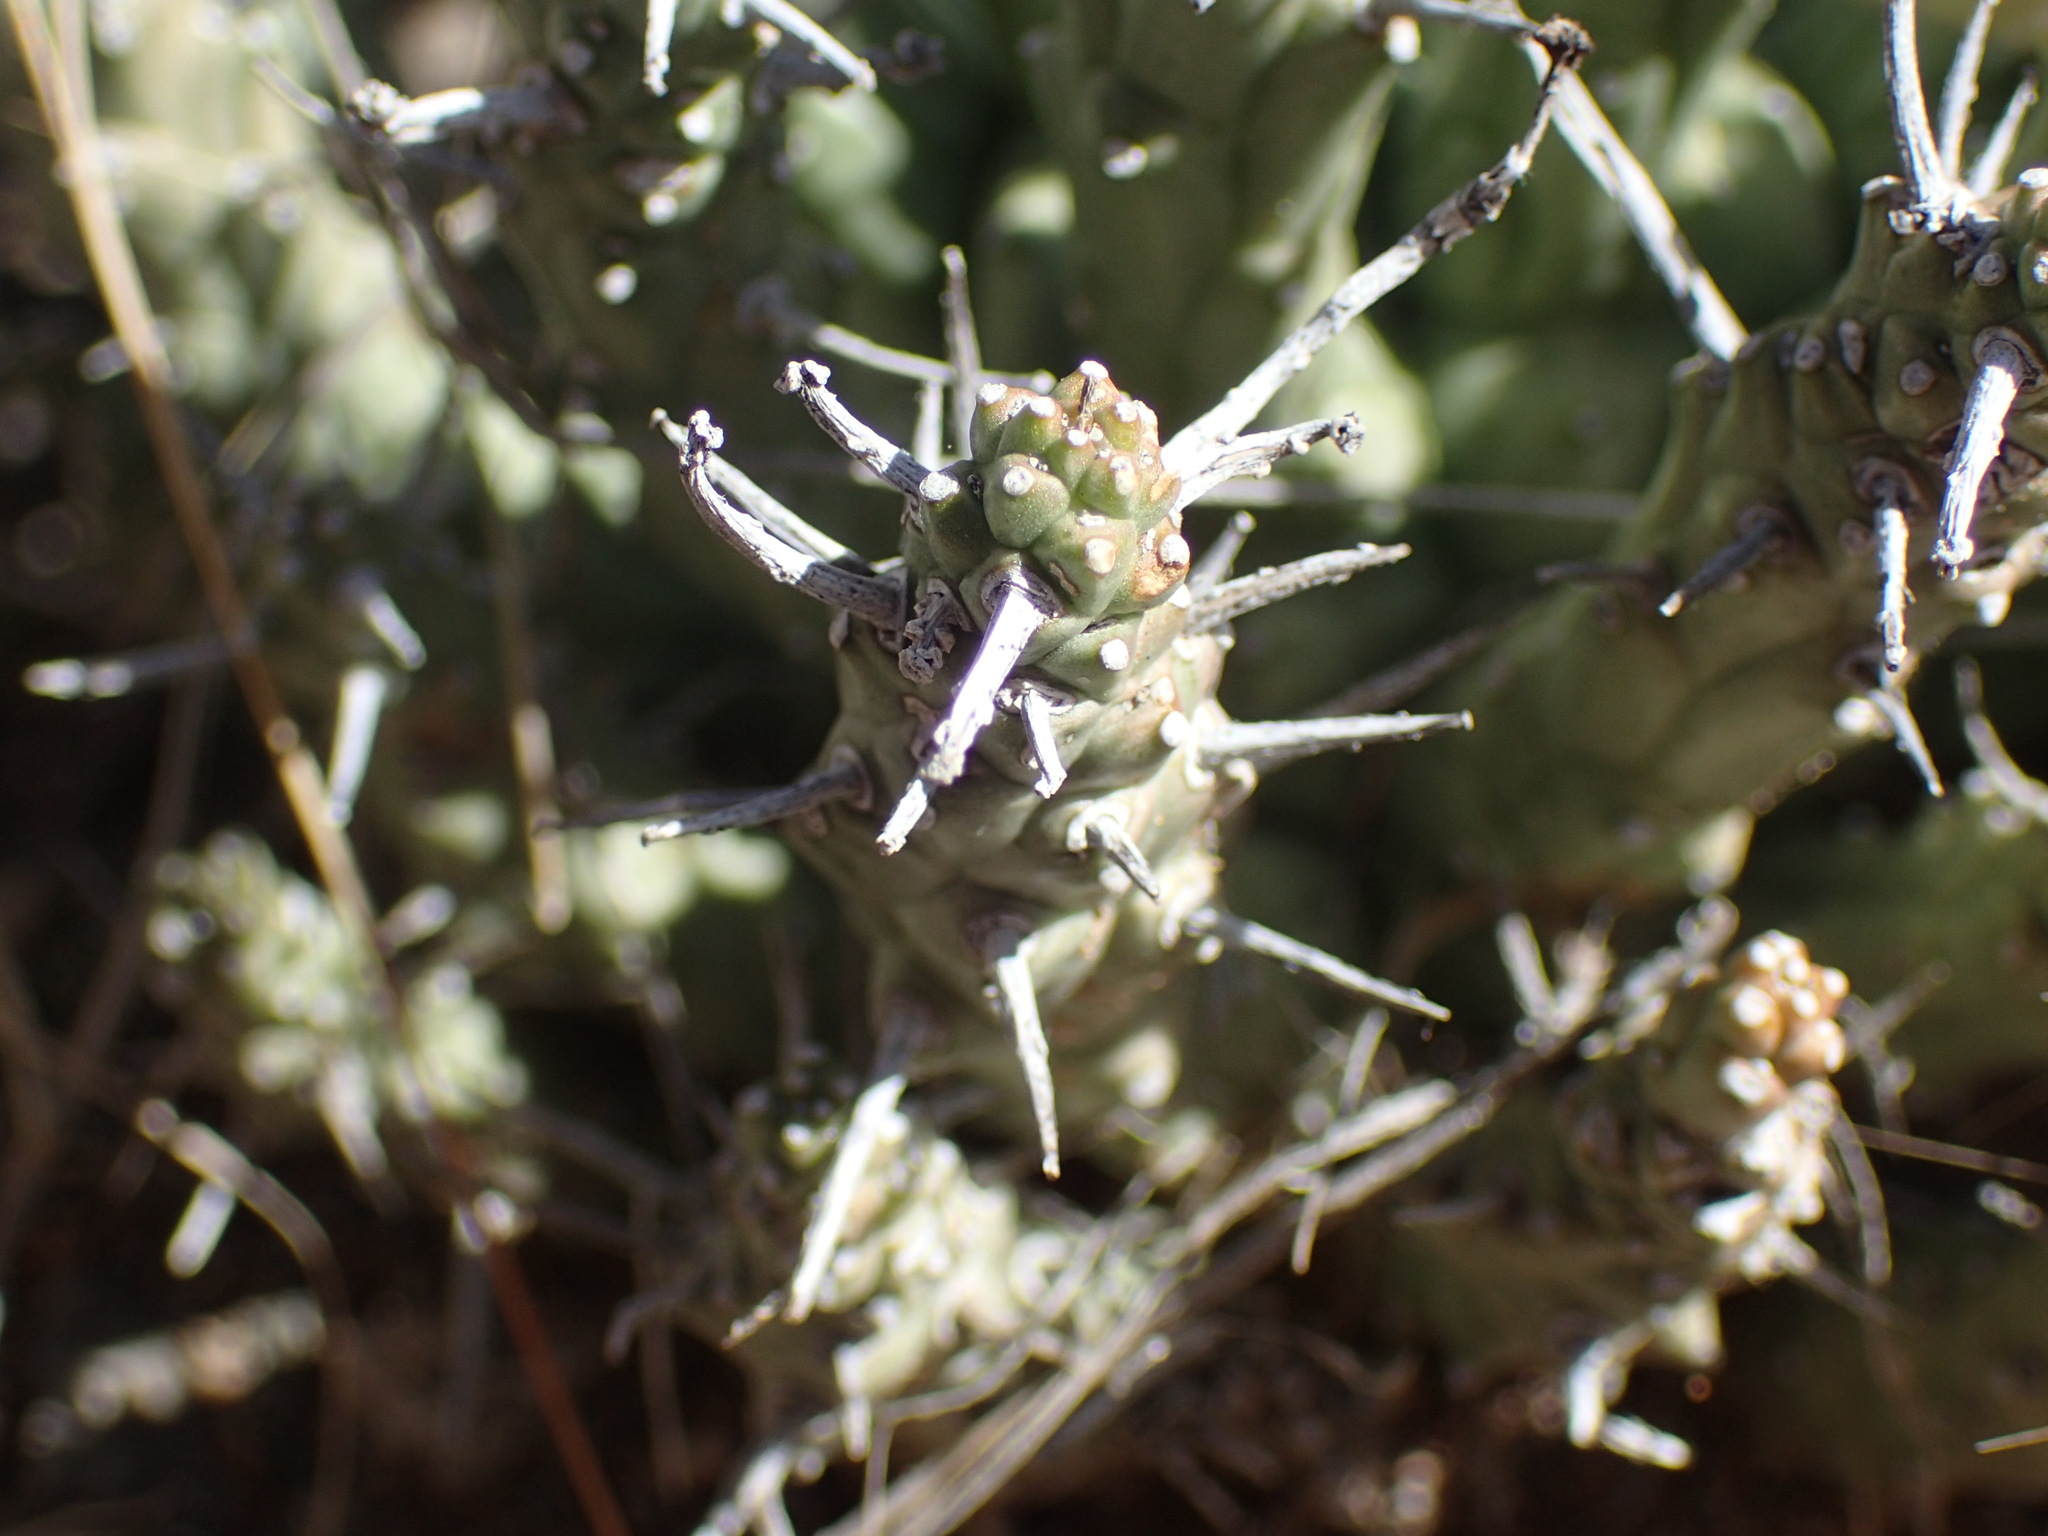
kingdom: Plantae
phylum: Tracheophyta
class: Magnoliopsida
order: Malpighiales
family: Euphorbiaceae
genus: Euphorbia
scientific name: Euphorbia crassipes
